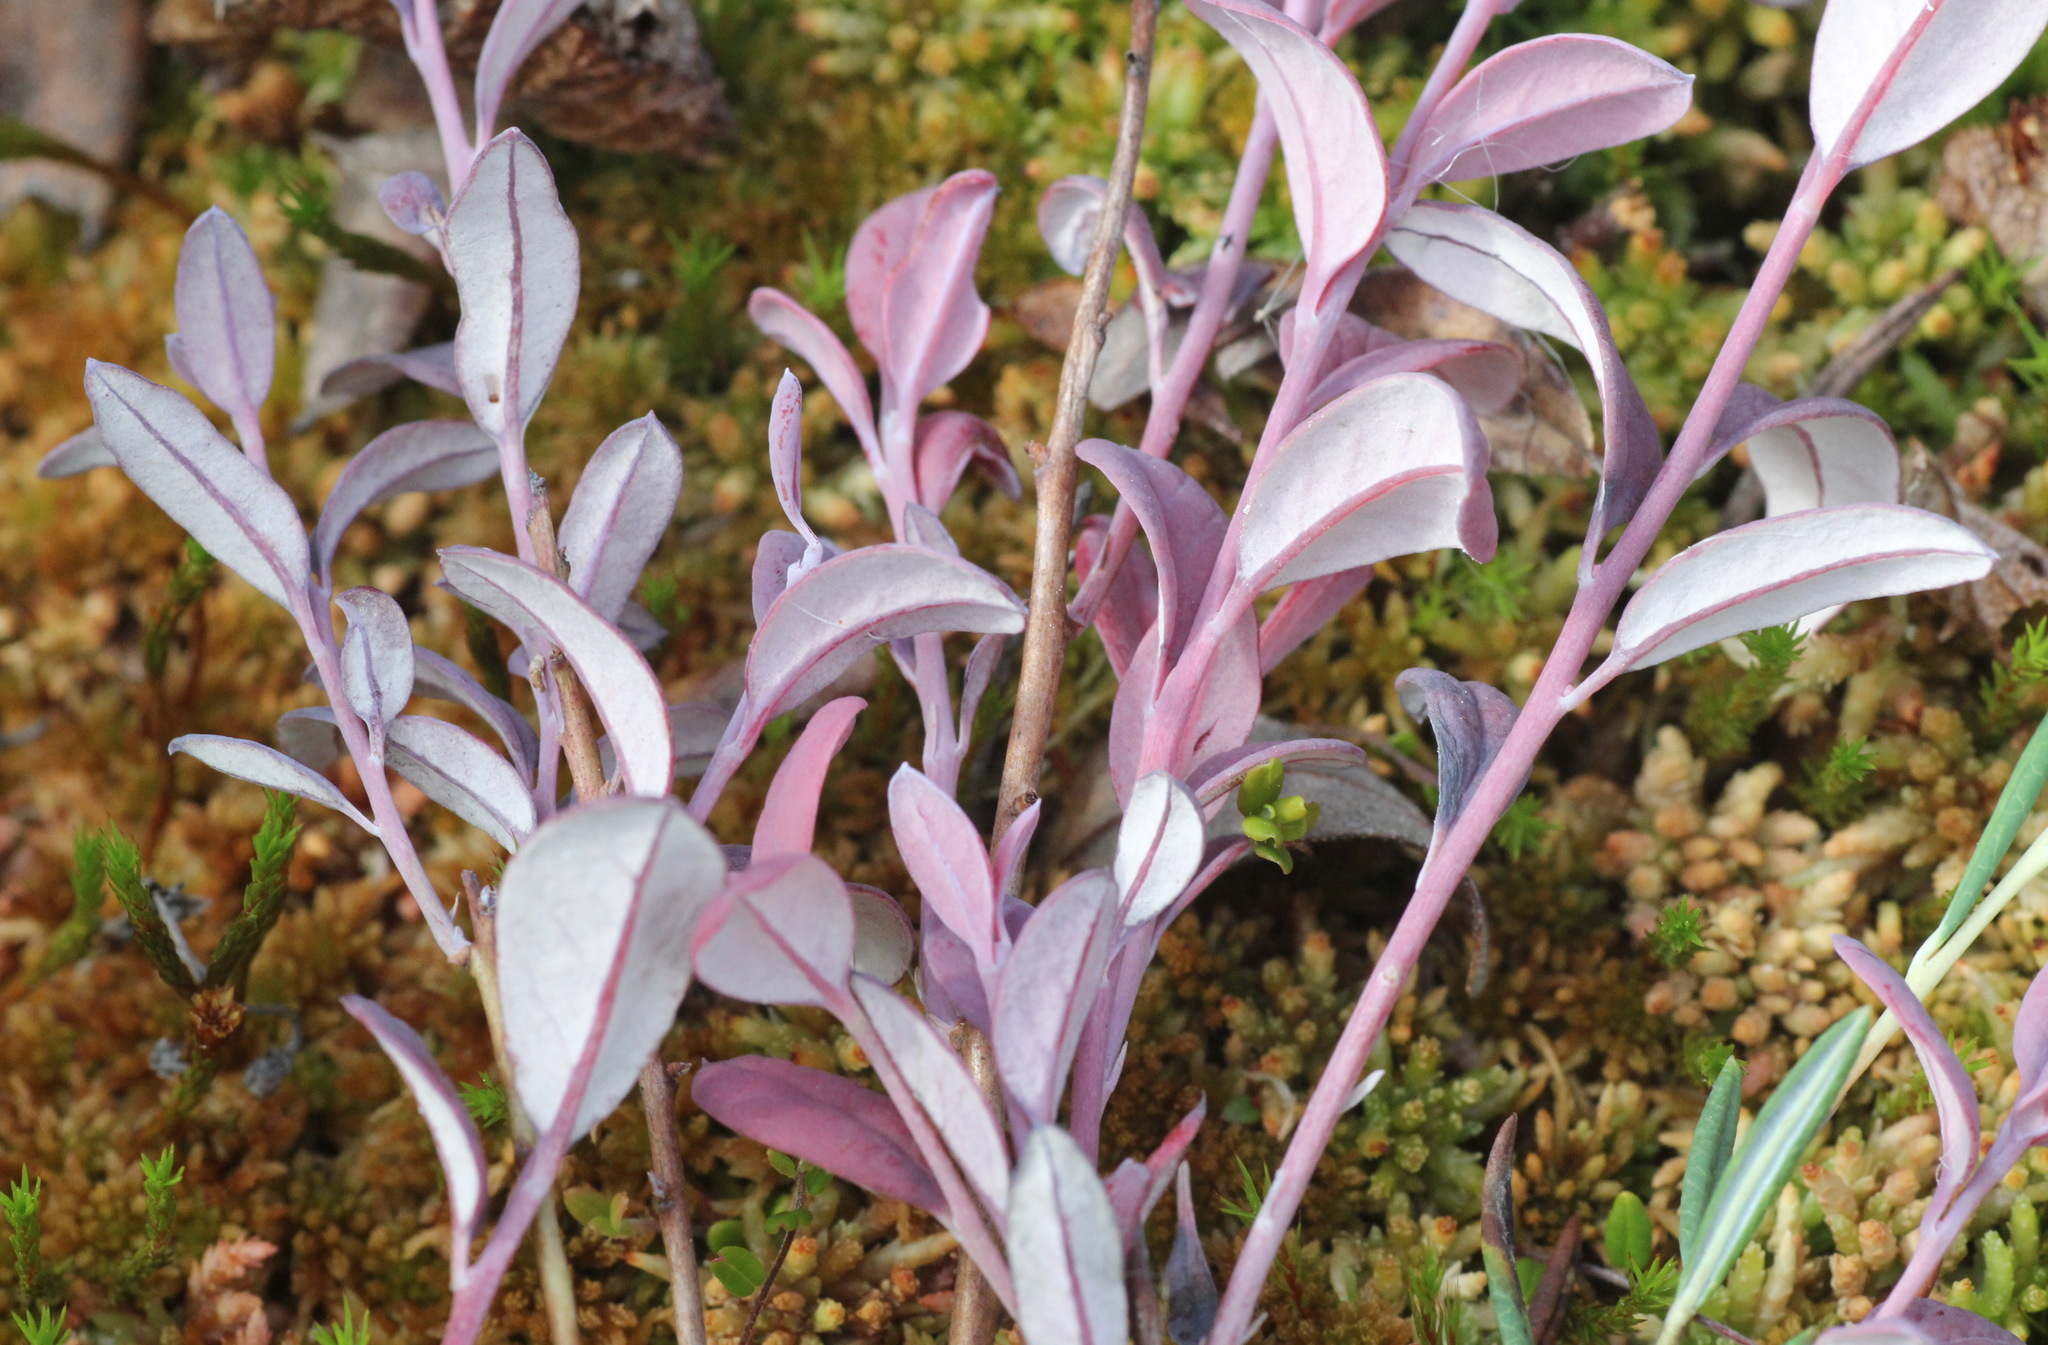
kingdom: Fungi
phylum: Basidiomycota
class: Exobasidiomycetes
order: Exobasidiales
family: Exobasidiaceae
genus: Exobasidium
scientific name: Exobasidium karstenii
